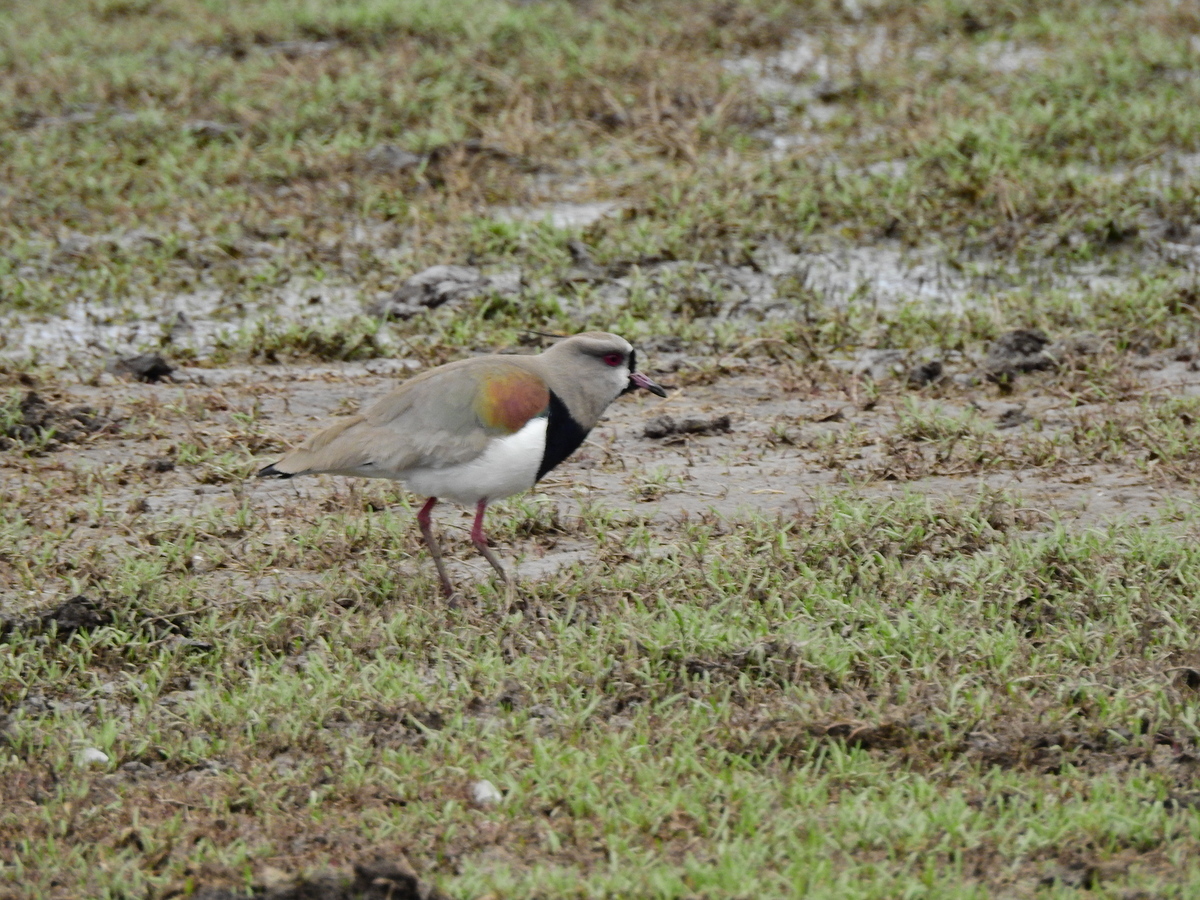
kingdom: Animalia
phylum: Chordata
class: Aves
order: Charadriiformes
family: Charadriidae
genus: Vanellus
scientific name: Vanellus chilensis
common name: Southern lapwing
